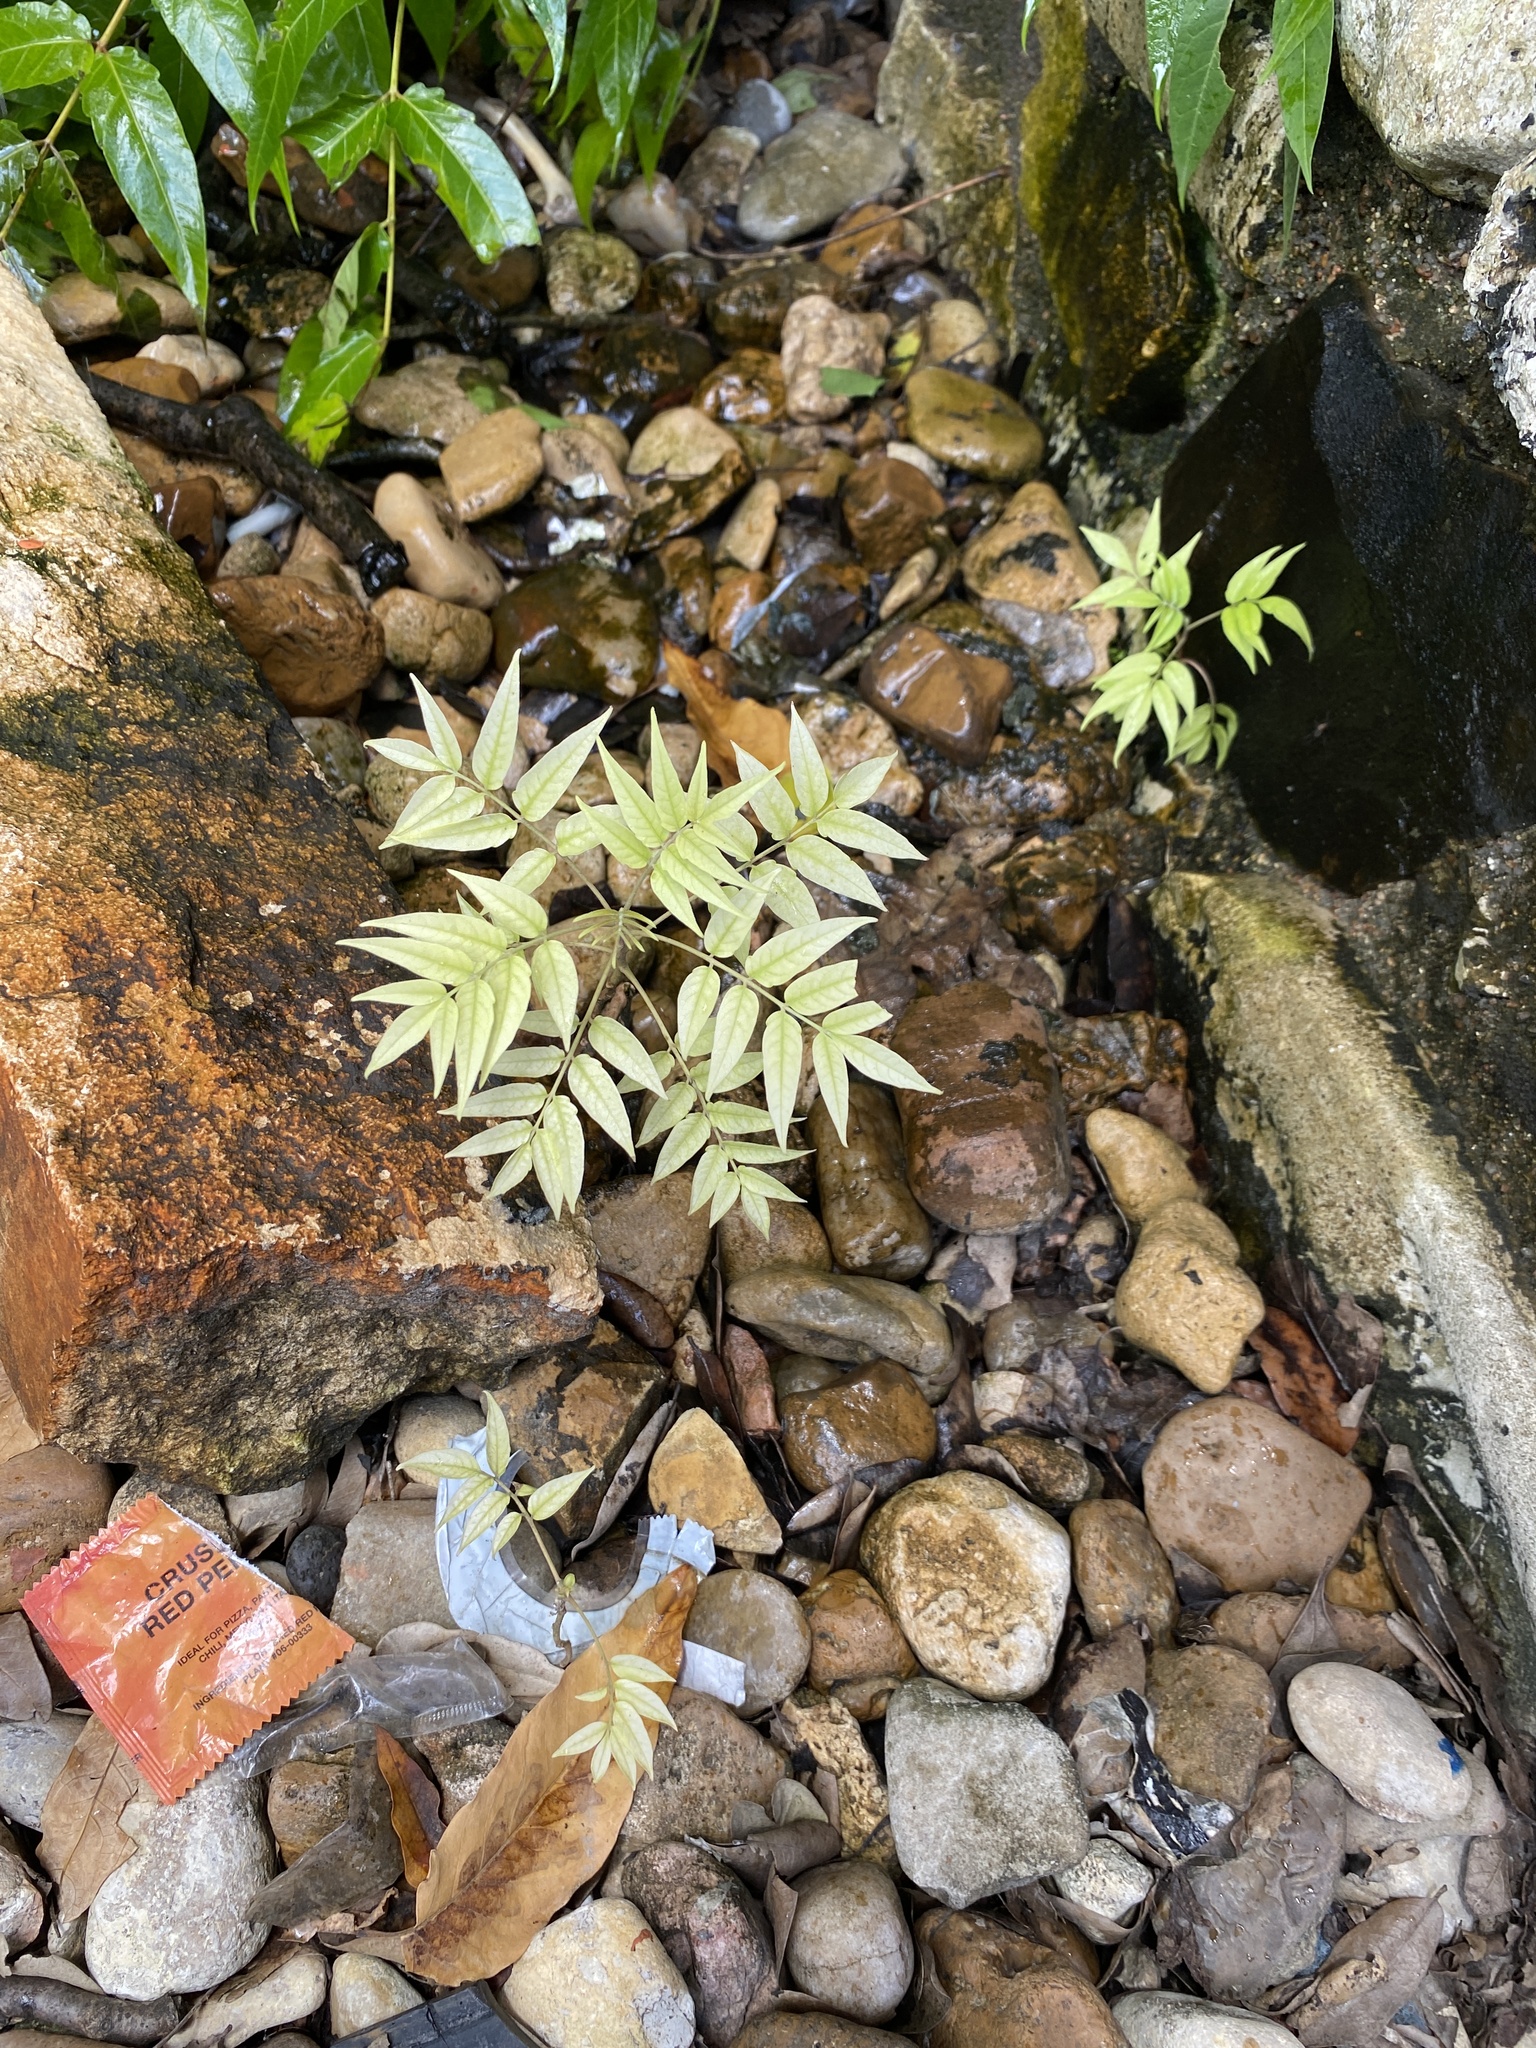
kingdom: Plantae
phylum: Tracheophyta
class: Magnoliopsida
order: Sapindales
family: Simaroubaceae
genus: Ailanthus
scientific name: Ailanthus altissima
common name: Tree-of-heaven
